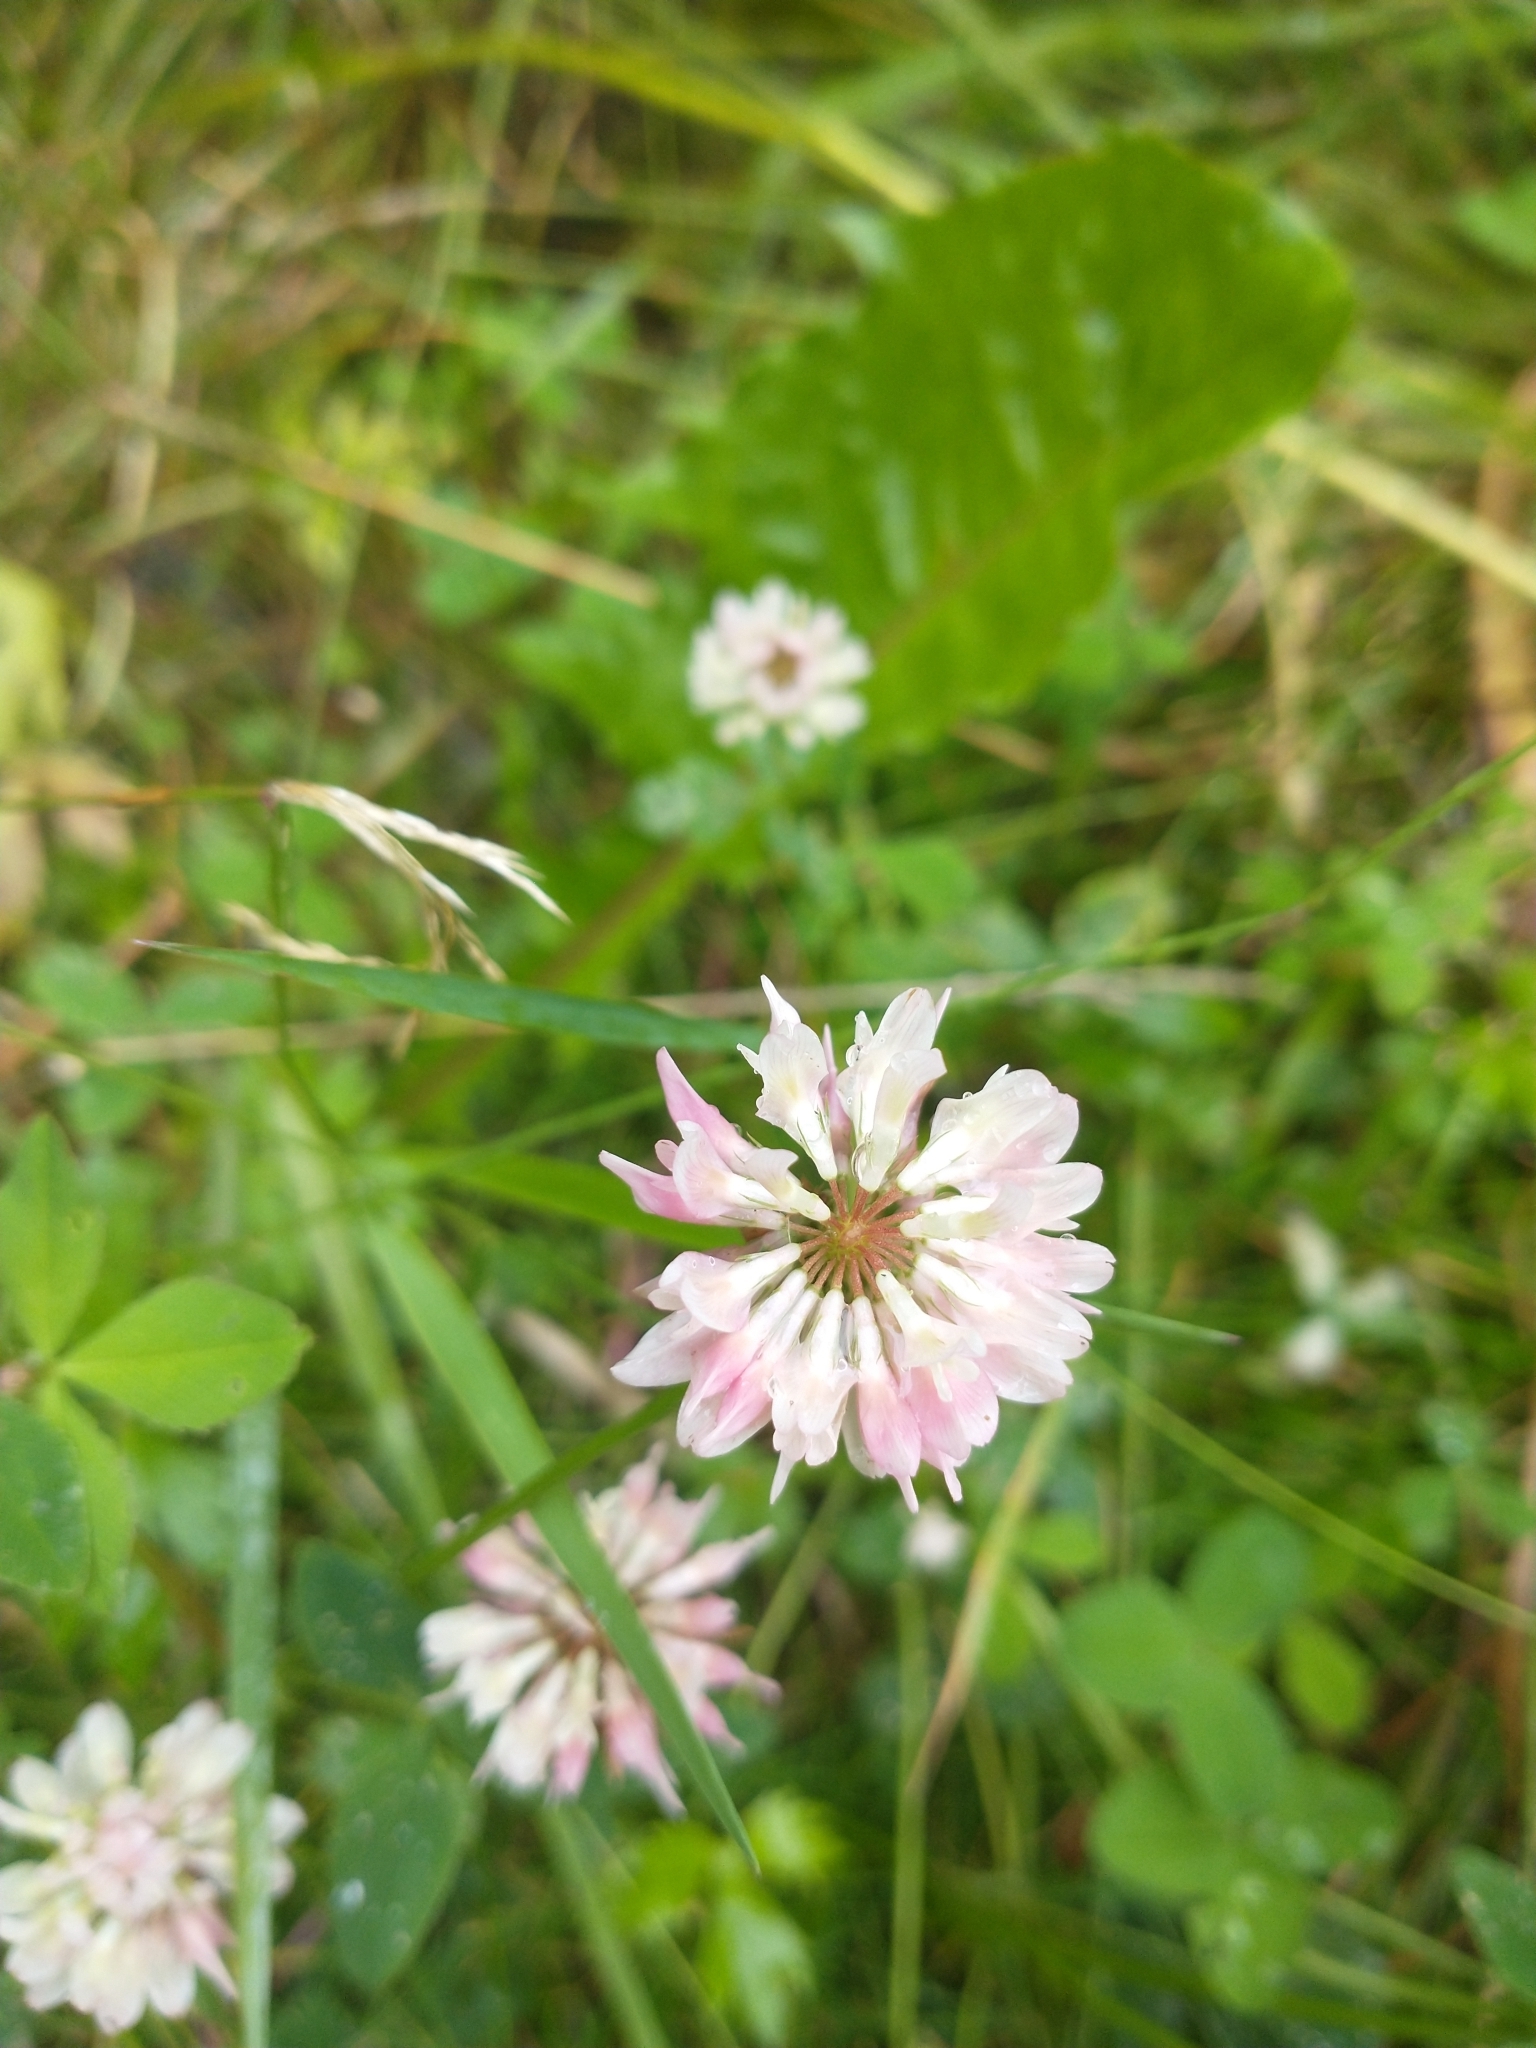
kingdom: Plantae
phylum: Tracheophyta
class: Magnoliopsida
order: Fabales
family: Fabaceae
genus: Trifolium
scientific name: Trifolium hybridum
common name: Alsike clover
